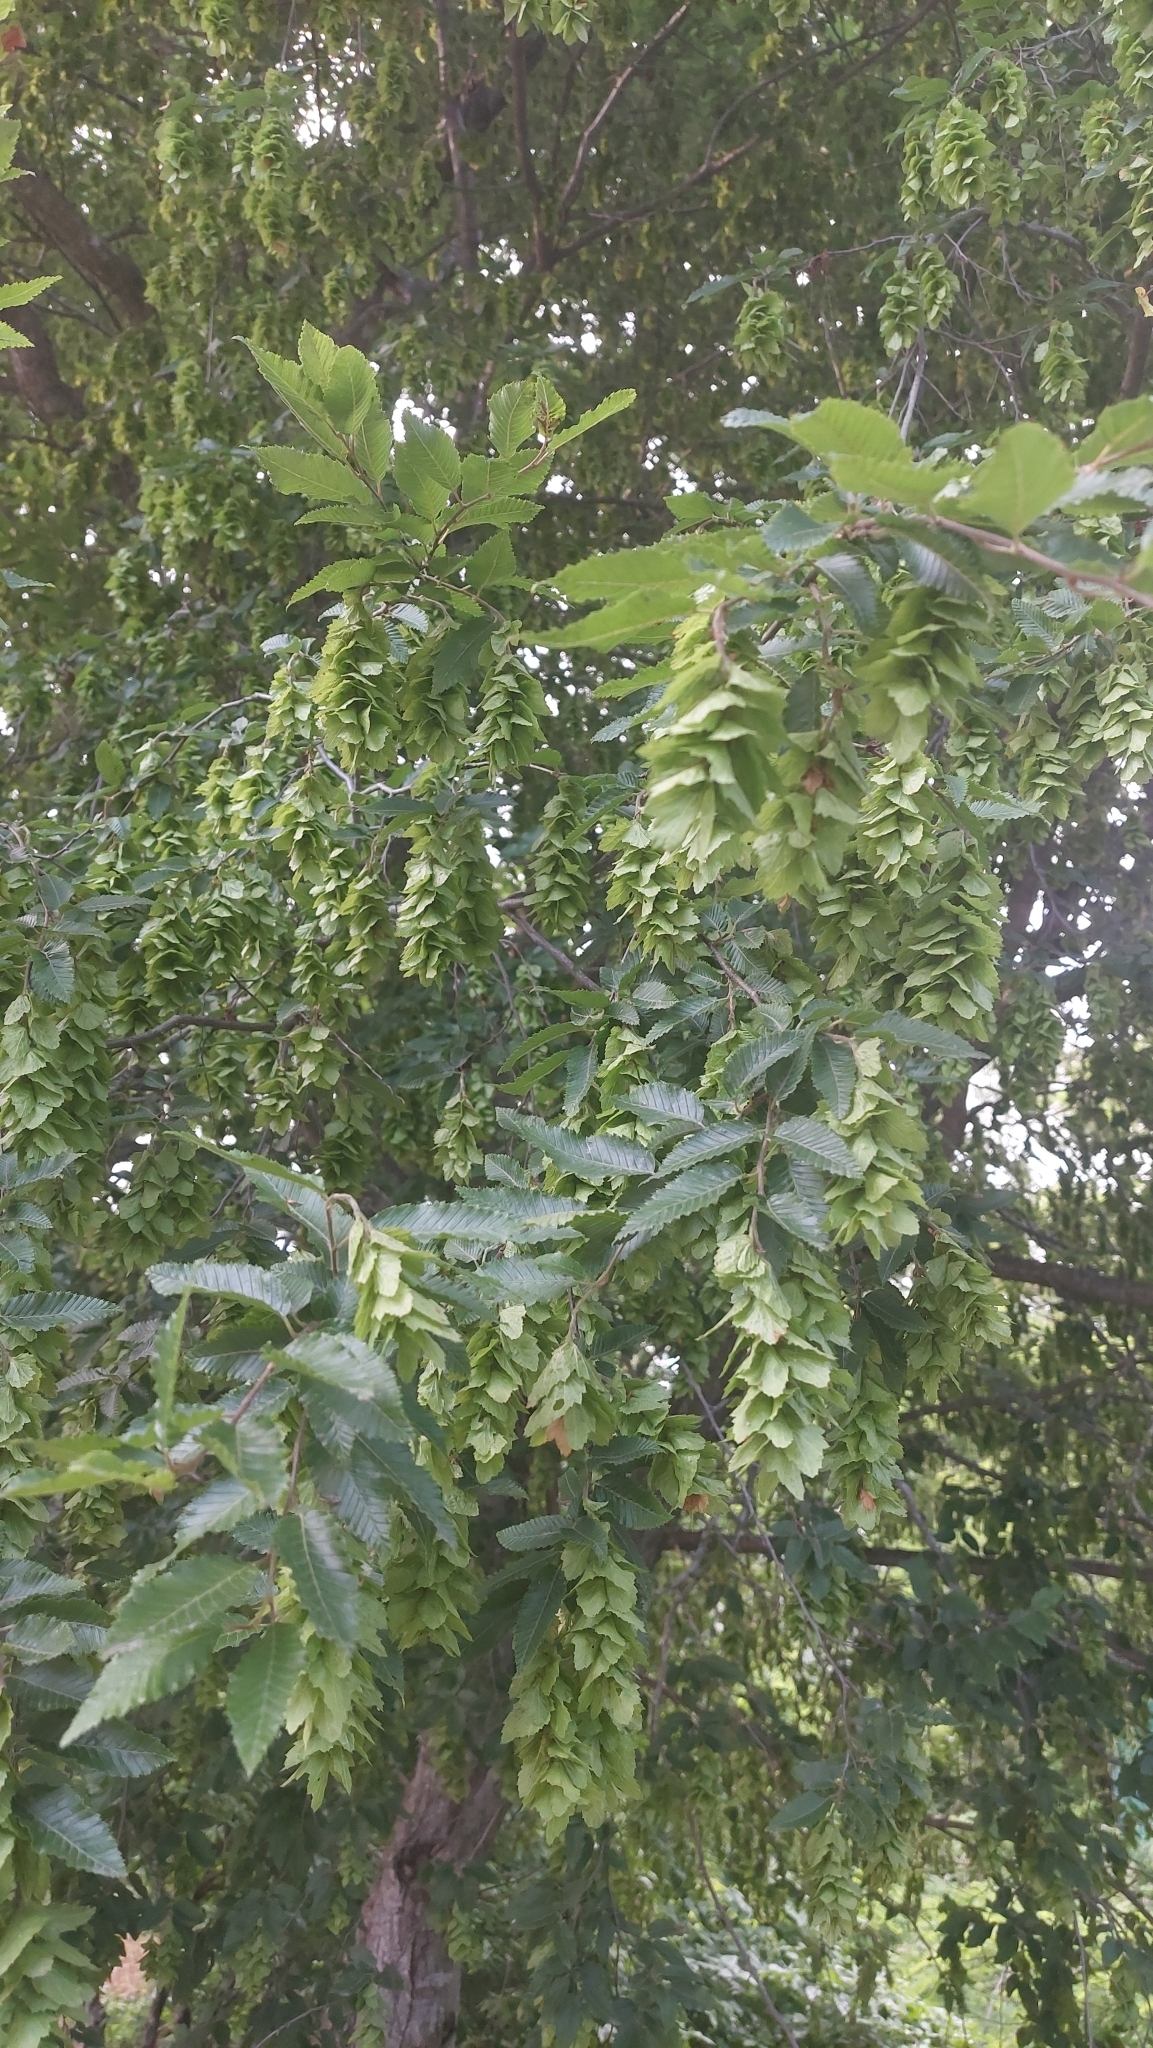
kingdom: Plantae
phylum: Tracheophyta
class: Magnoliopsida
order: Fagales
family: Betulaceae
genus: Carpinus
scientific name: Carpinus orientalis
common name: Eastern hornbeam
